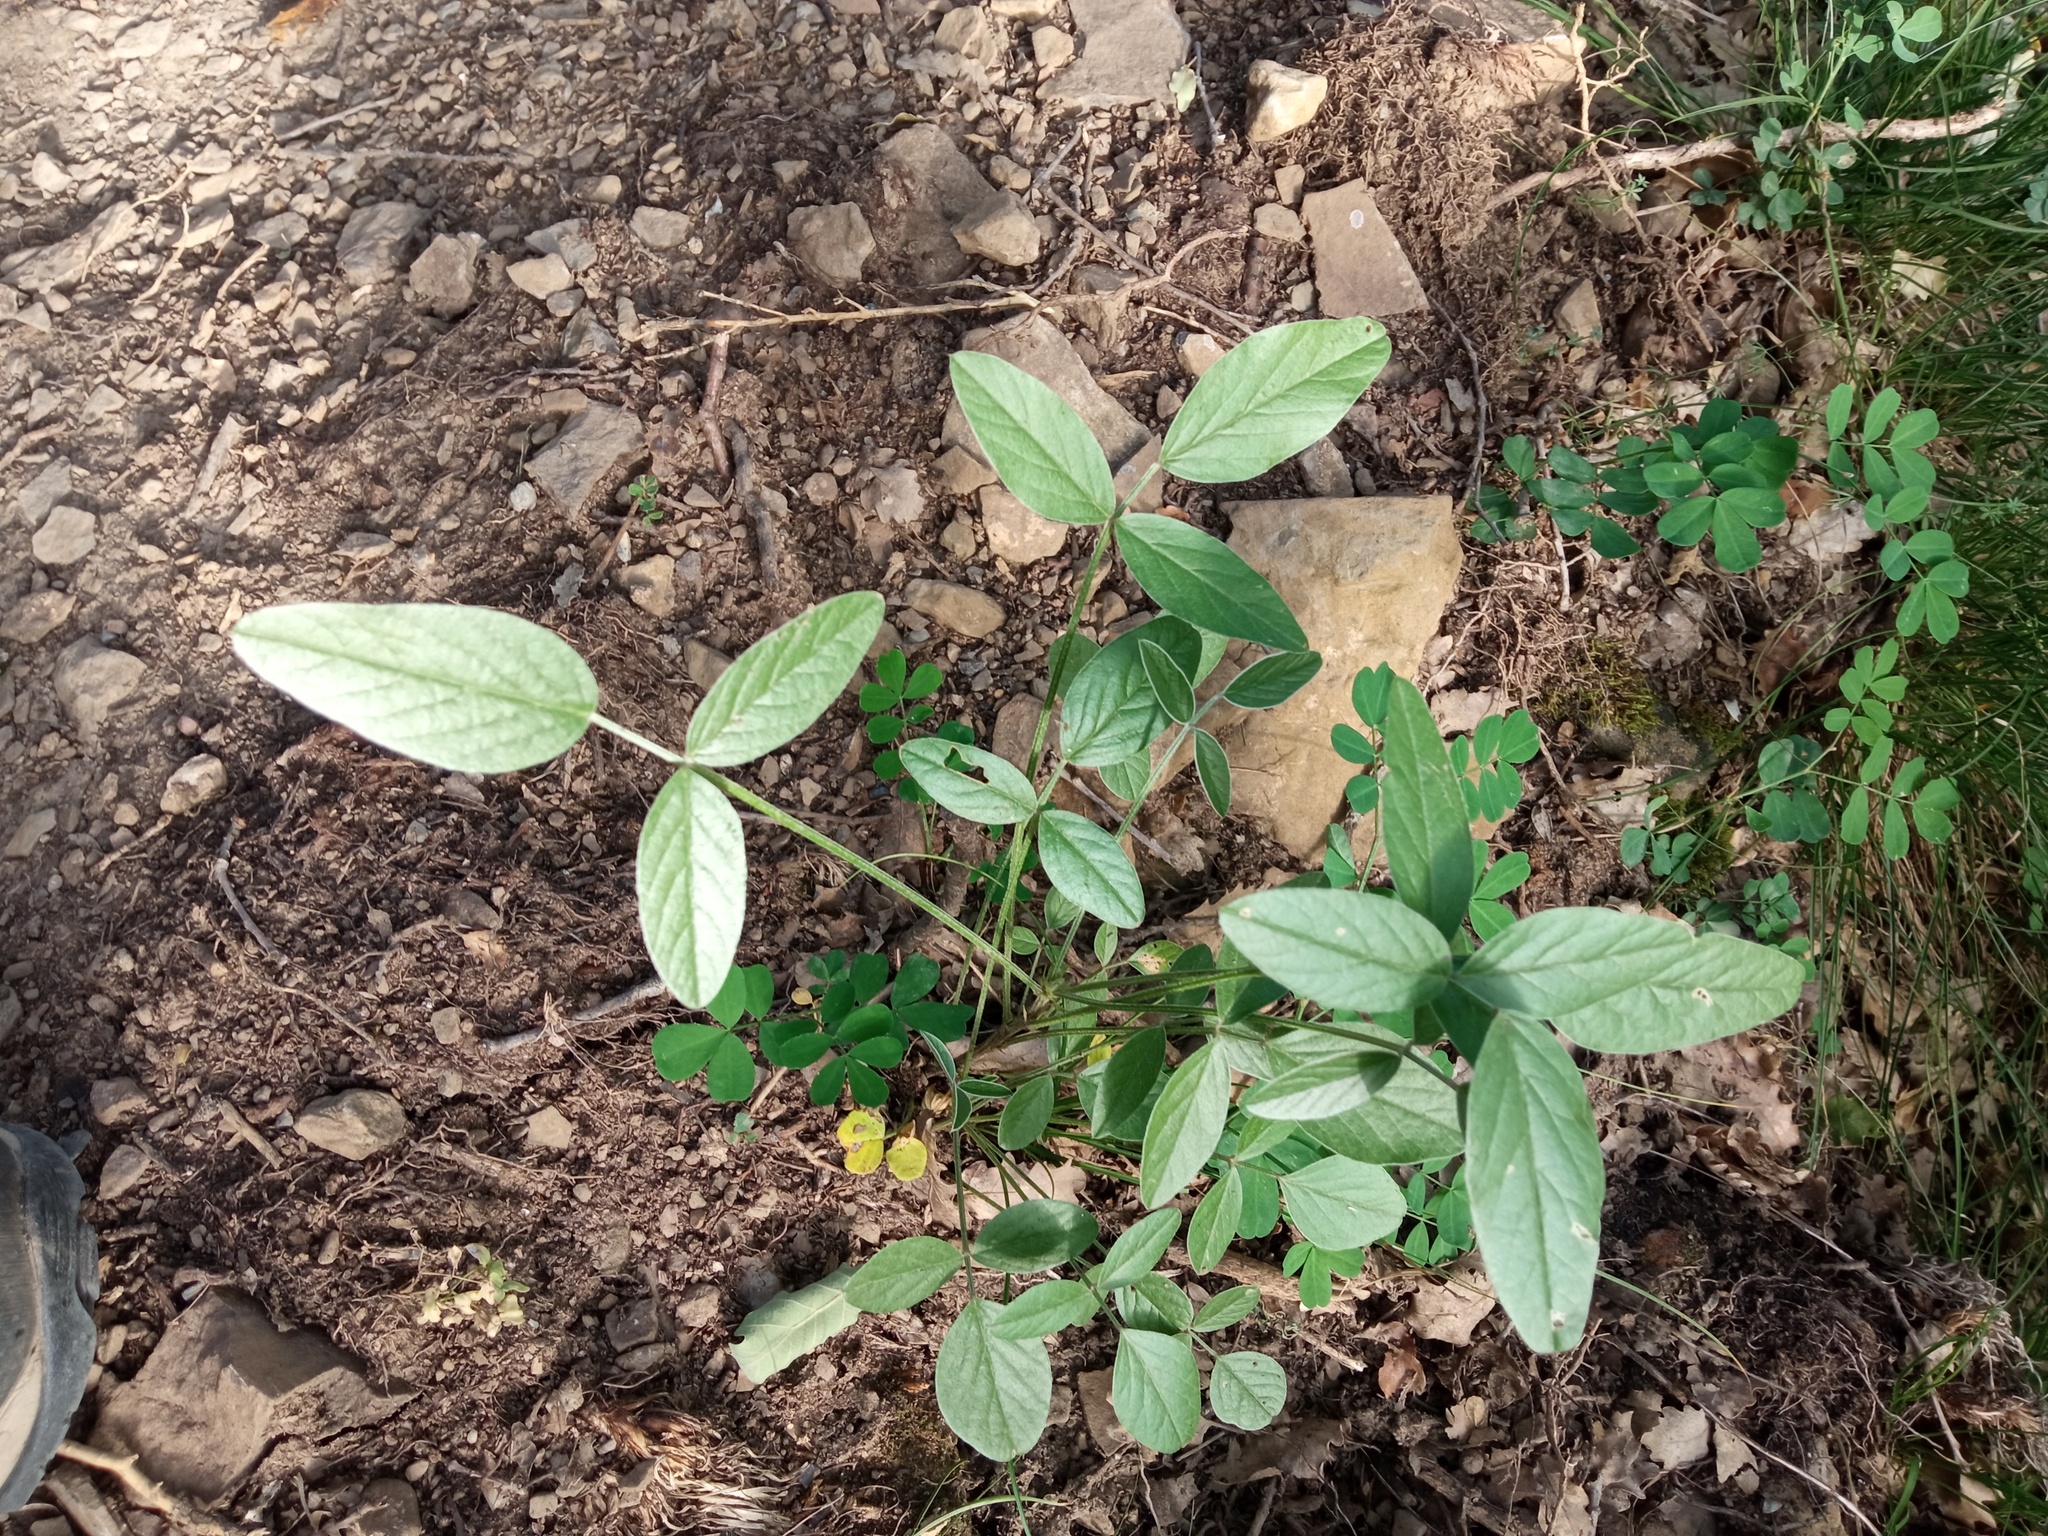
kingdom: Plantae
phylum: Tracheophyta
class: Magnoliopsida
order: Fabales
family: Fabaceae
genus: Bituminaria
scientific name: Bituminaria bituminosa
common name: Arabian pea
